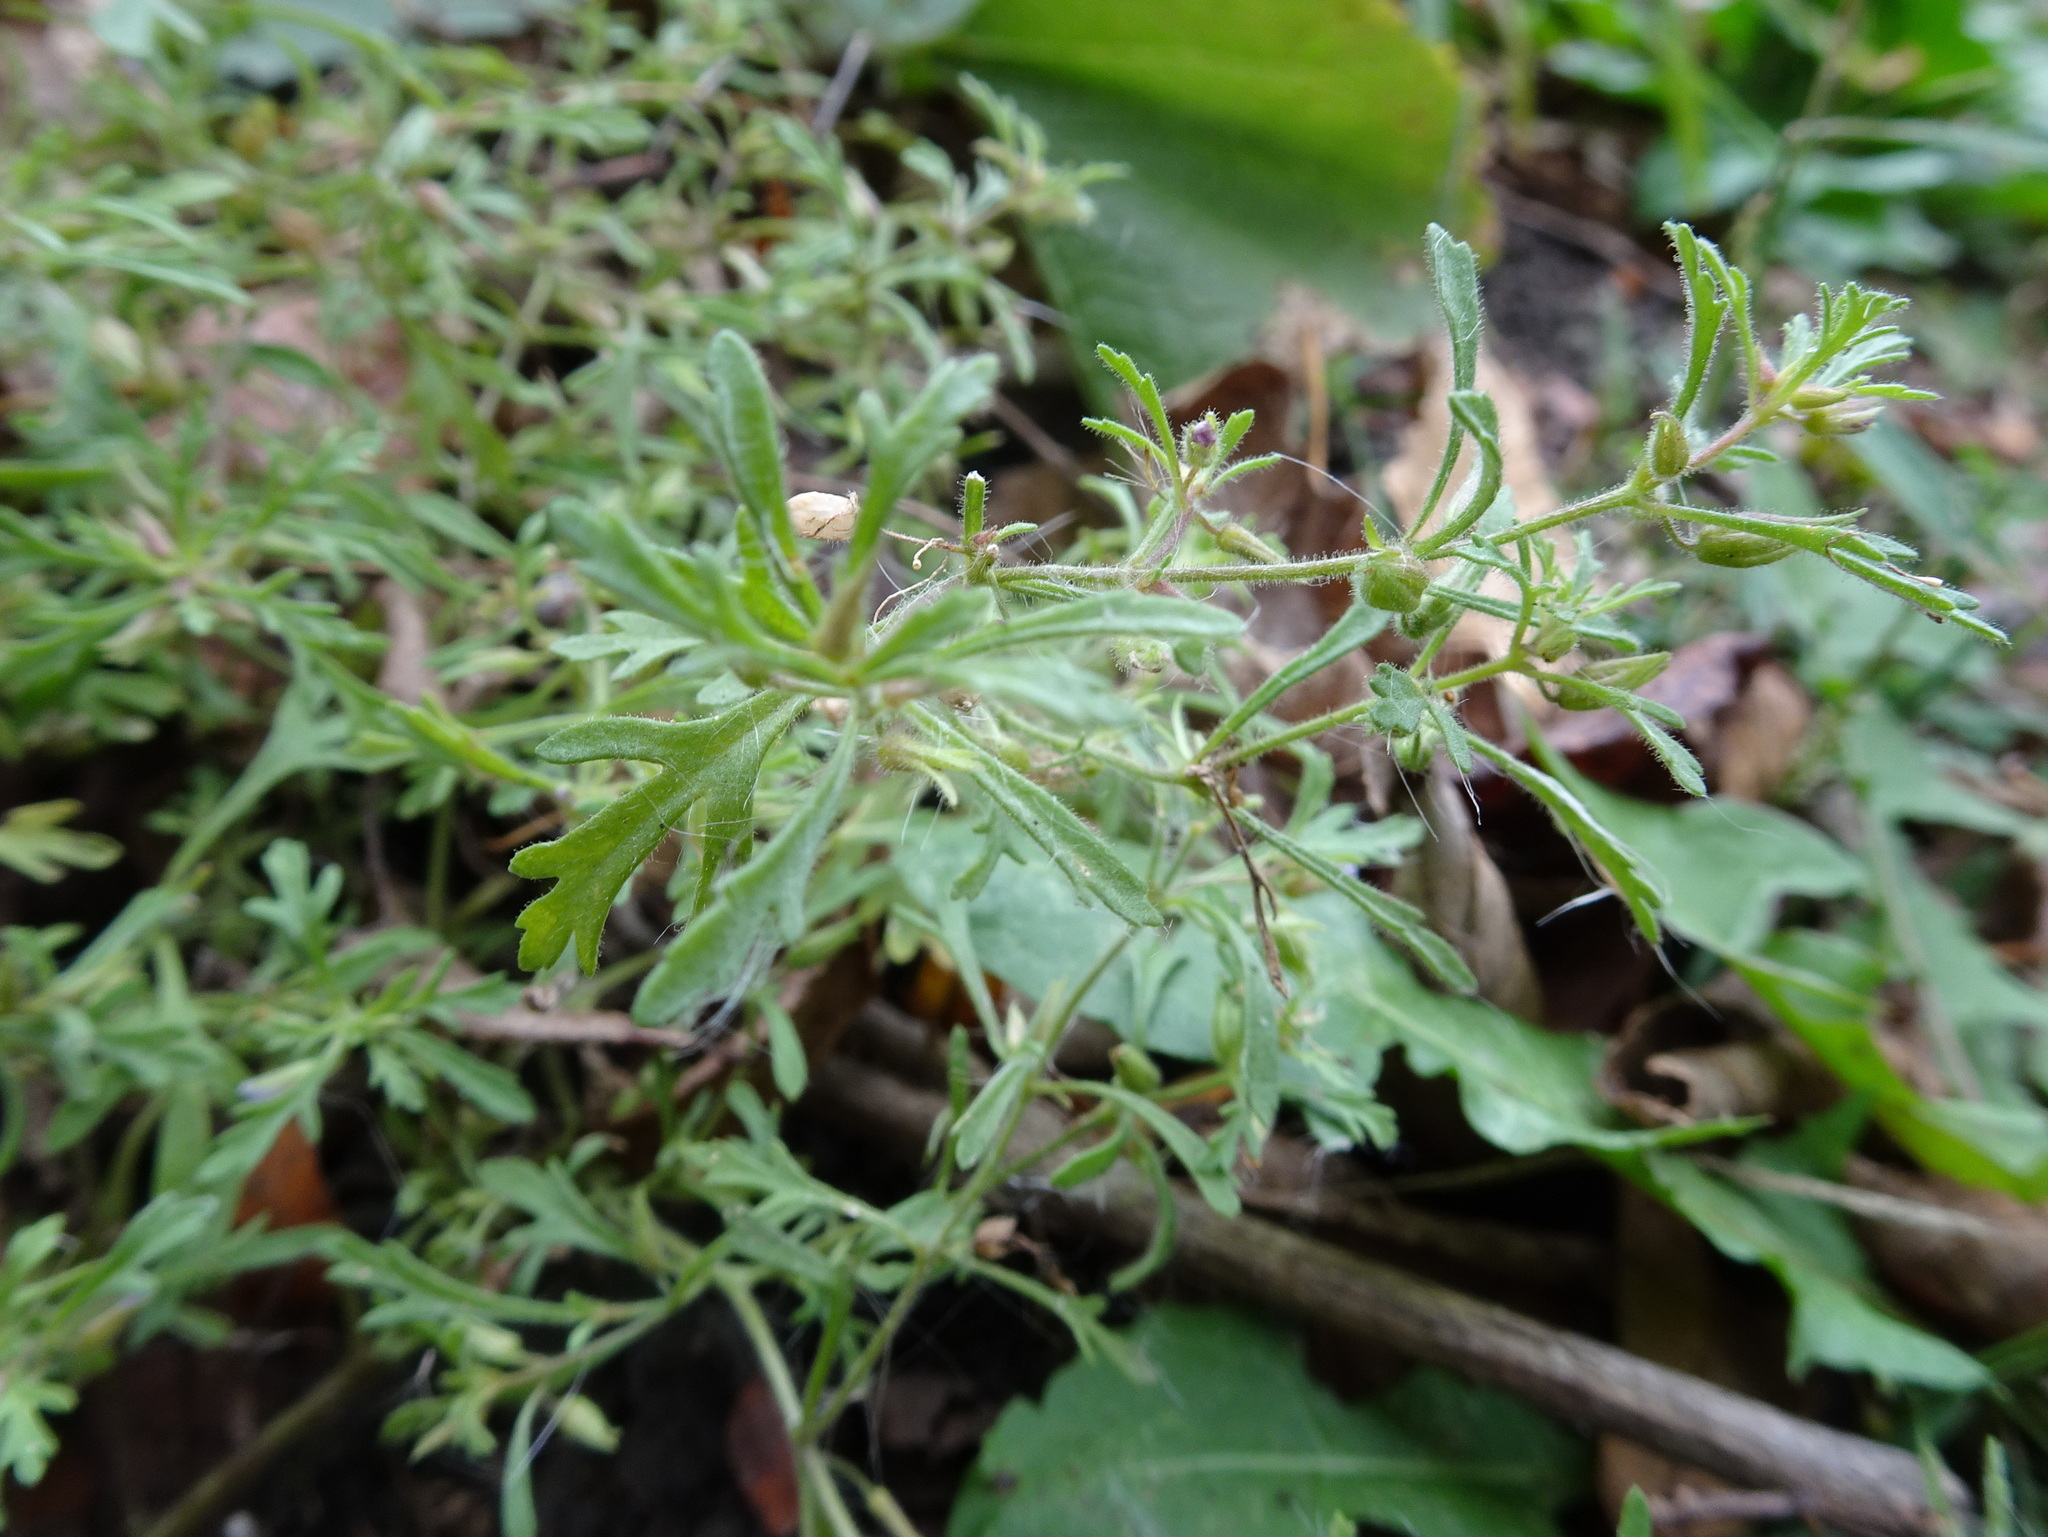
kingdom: Plantae
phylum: Tracheophyta
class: Magnoliopsida
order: Lamiales
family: Plantaginaceae
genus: Leucospora
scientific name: Leucospora multifida
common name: Narrow-leaf paleseed
